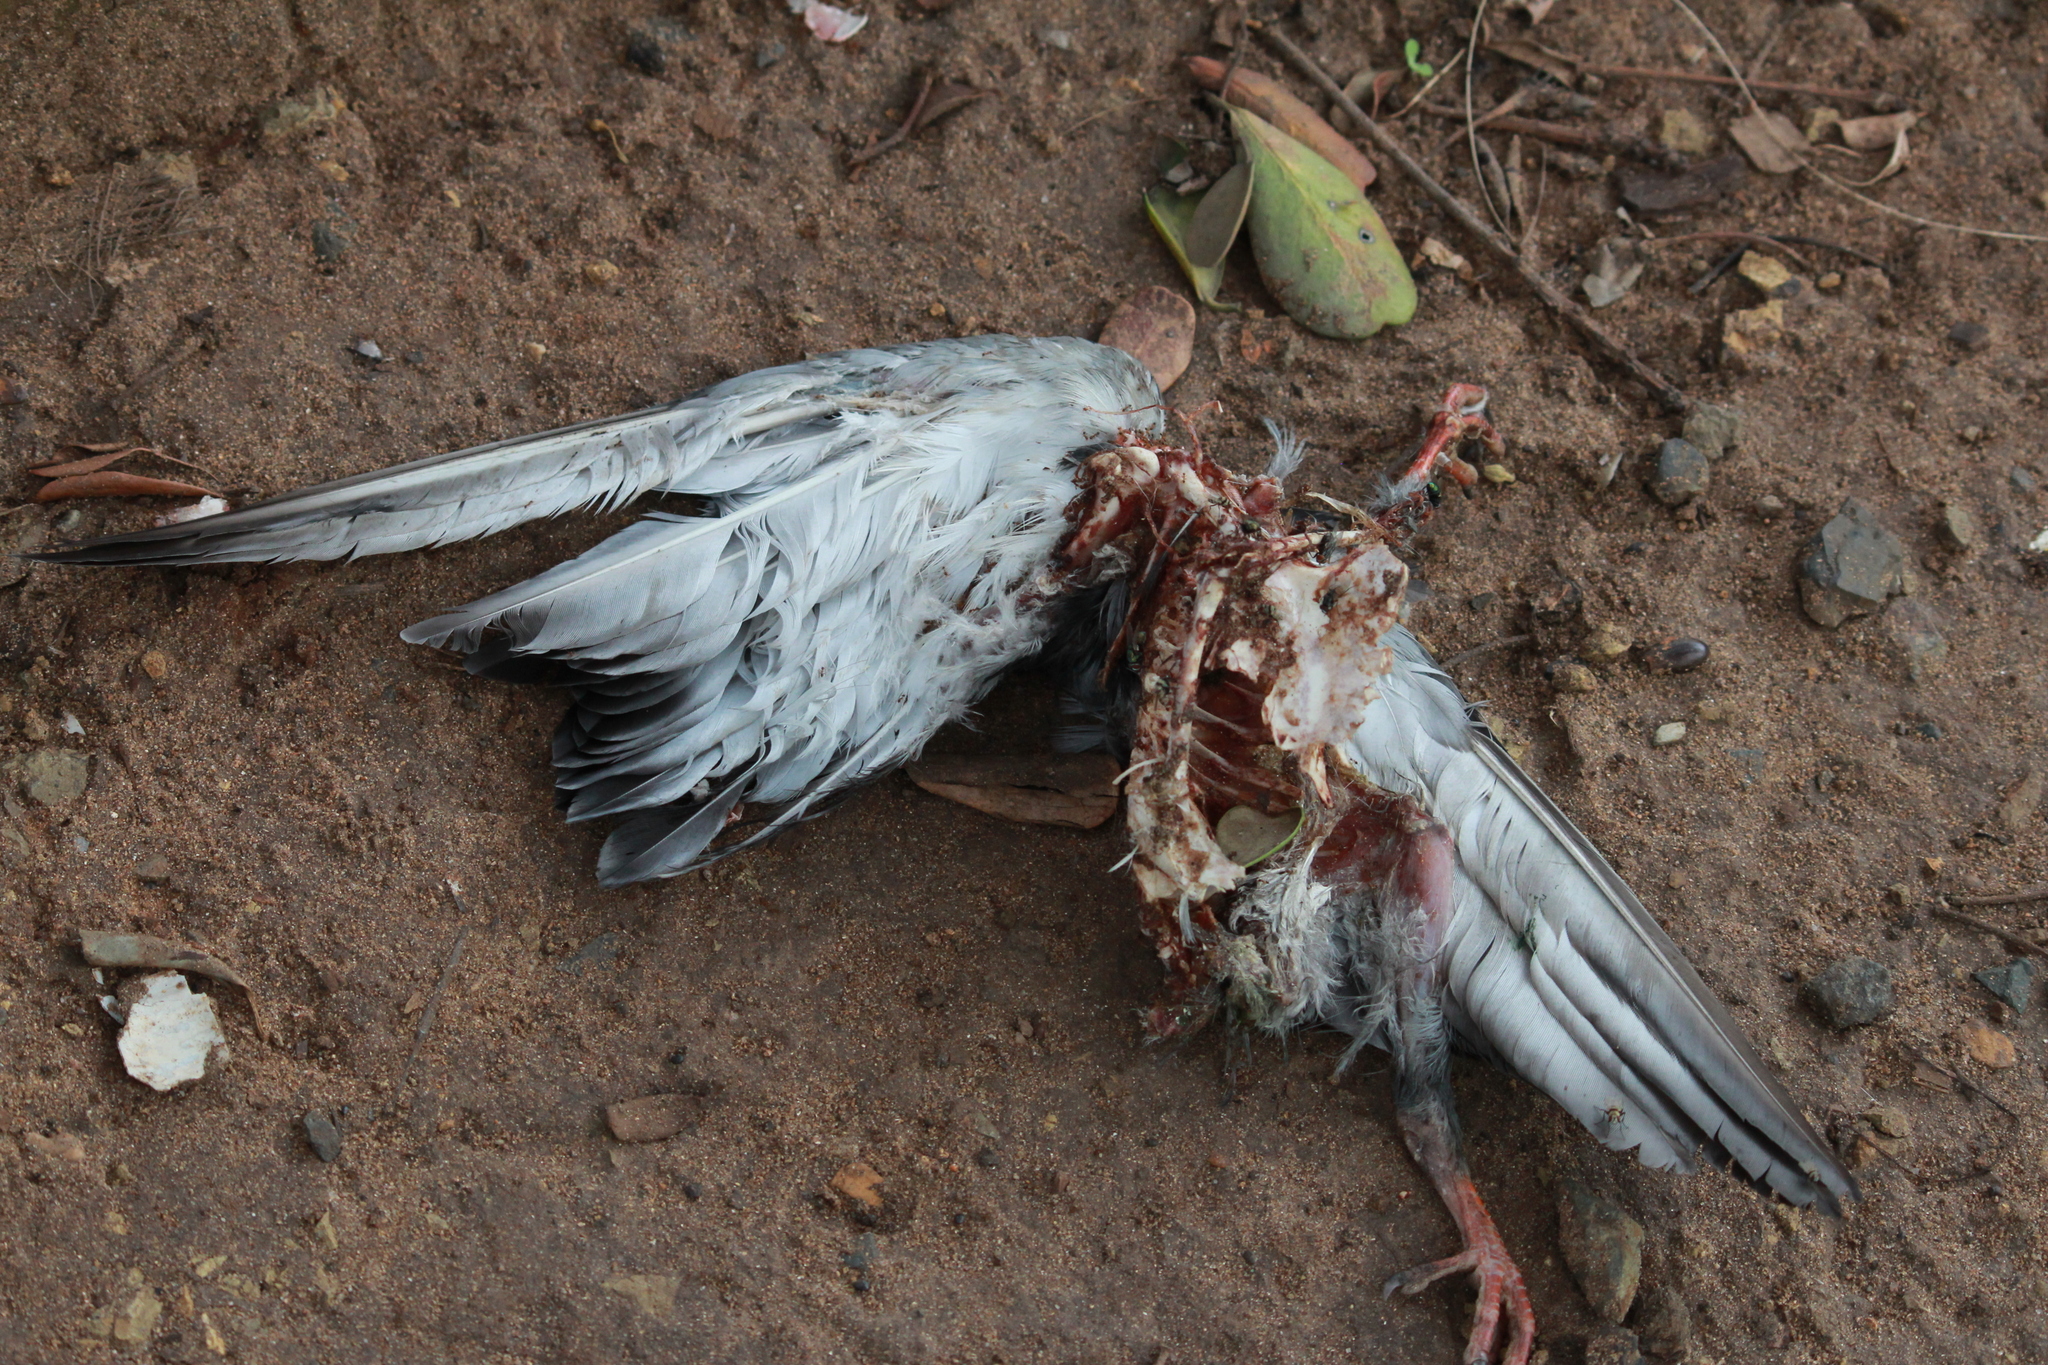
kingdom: Animalia
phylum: Chordata
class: Aves
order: Columbiformes
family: Columbidae
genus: Columba
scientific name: Columba livia
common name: Rock pigeon
